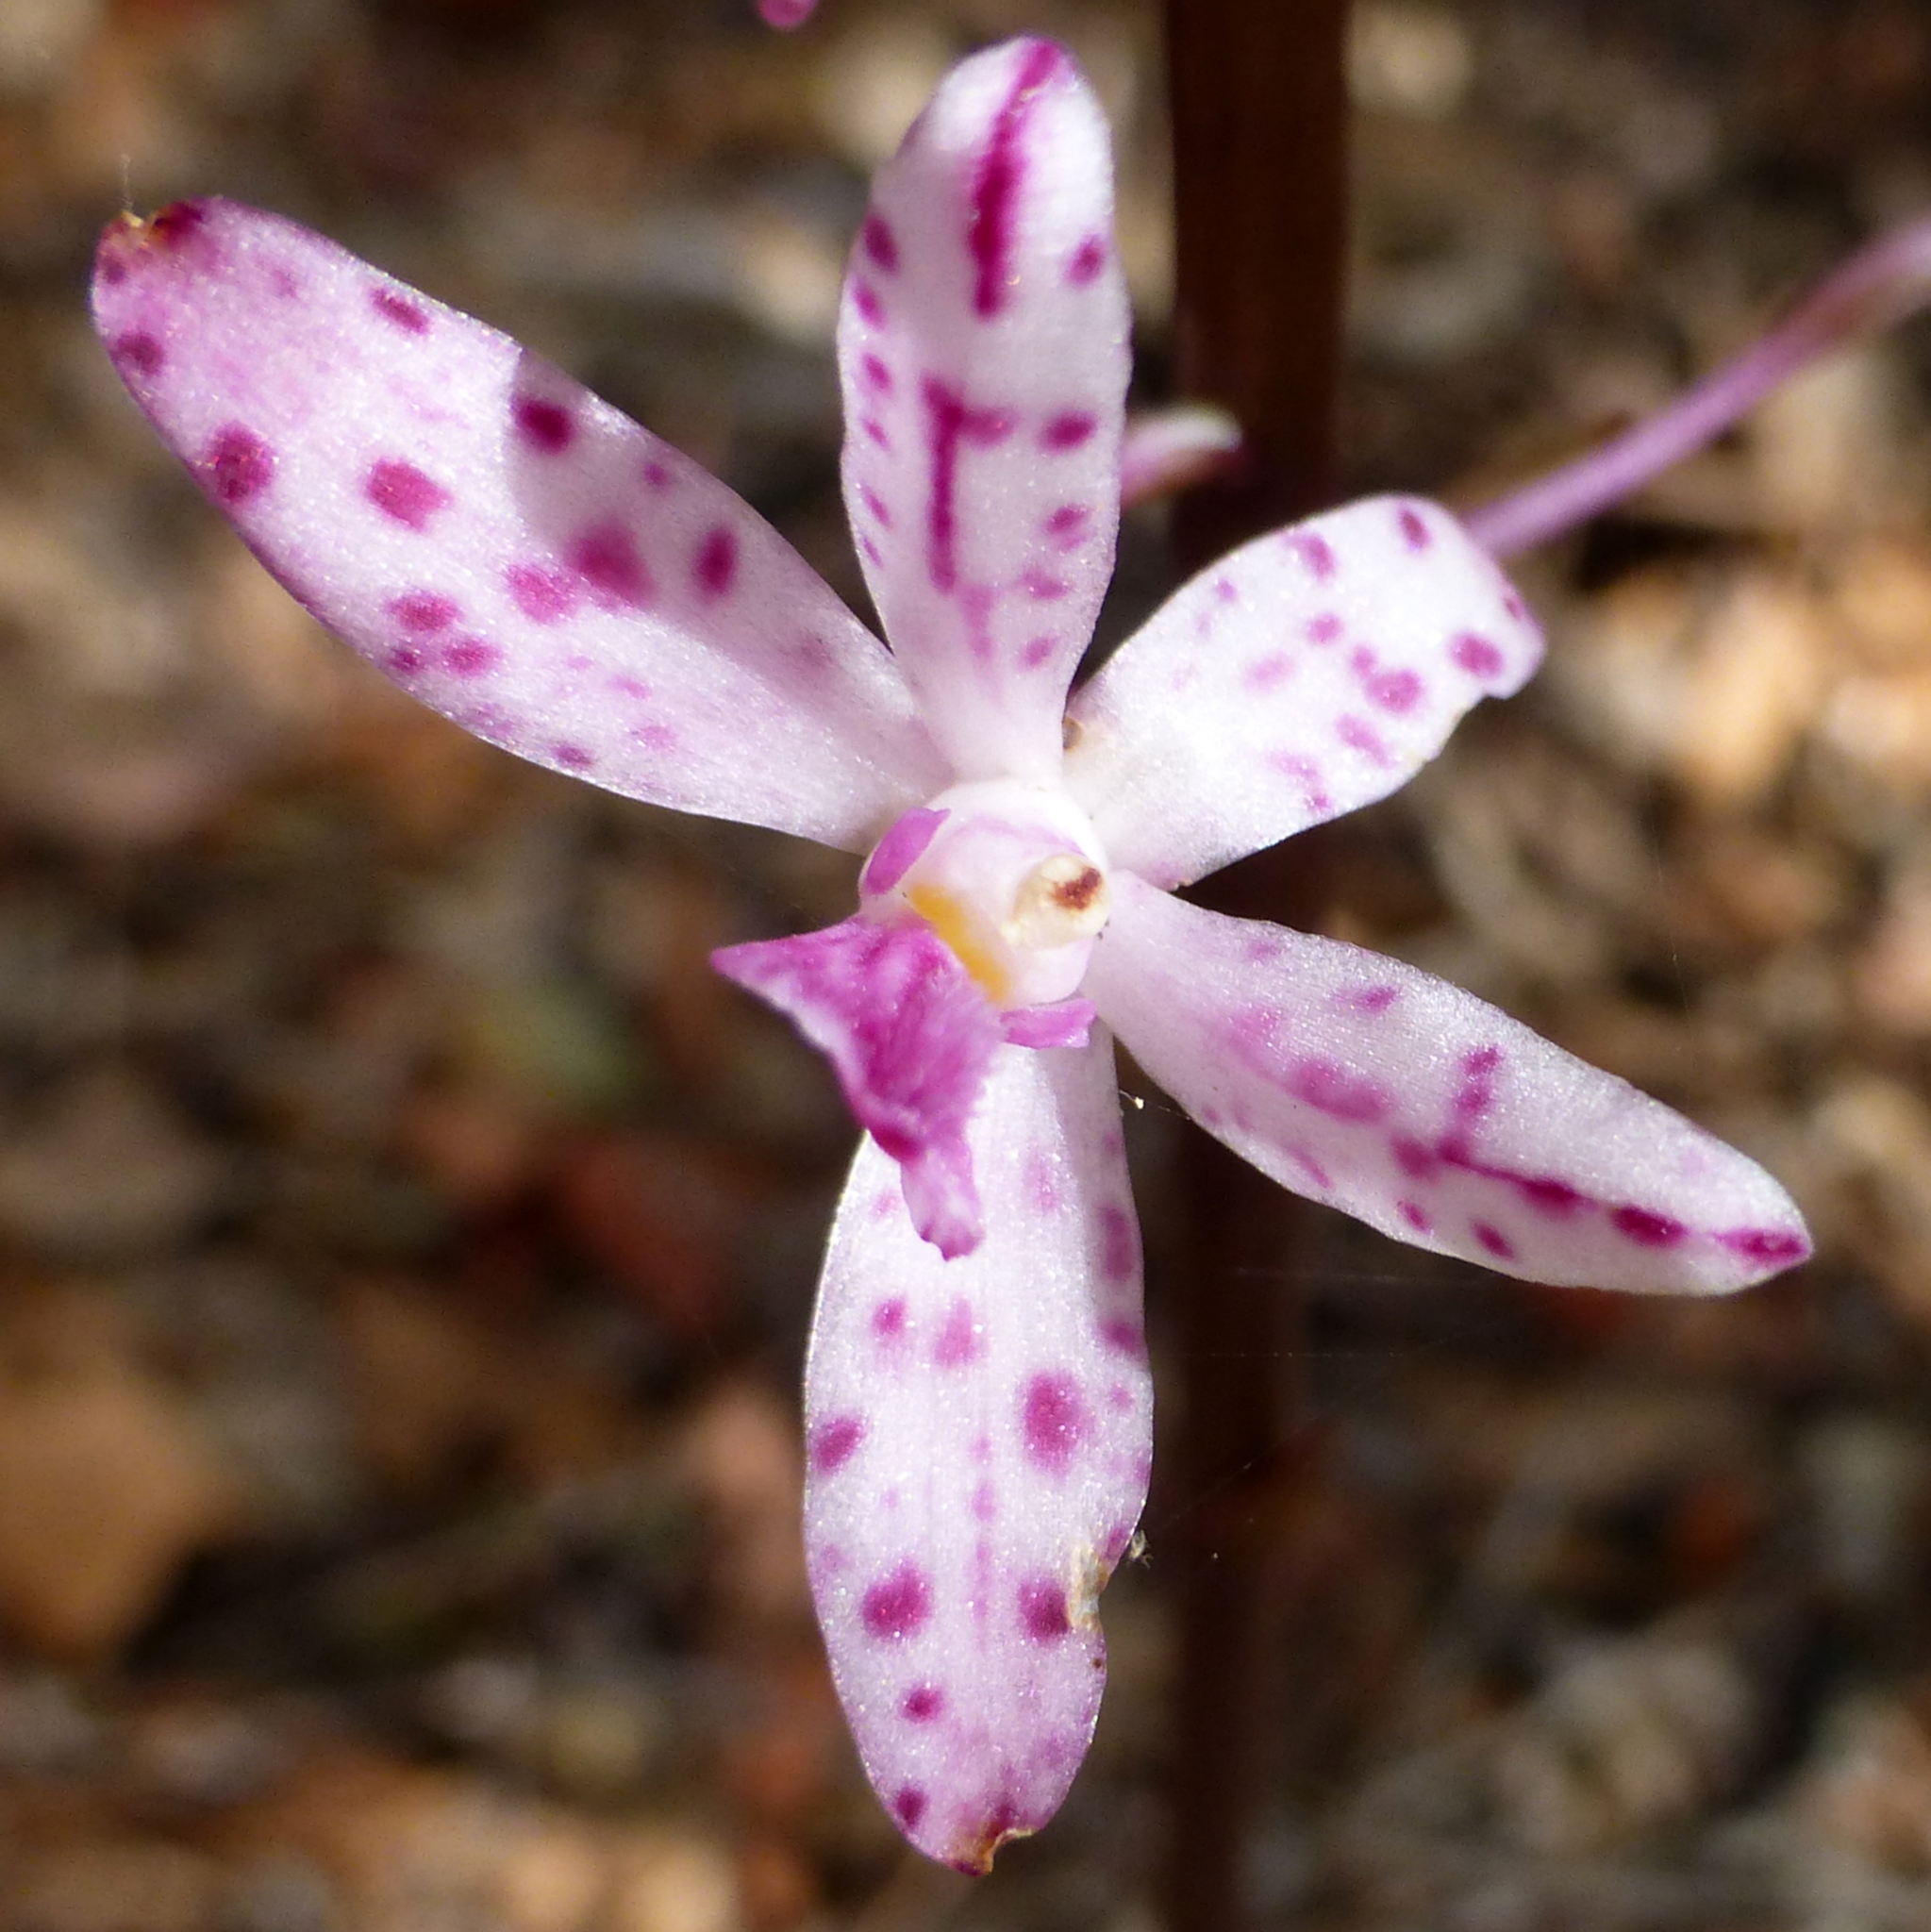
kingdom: Plantae
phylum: Tracheophyta
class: Liliopsida
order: Asparagales
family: Orchidaceae
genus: Dipodium
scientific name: Dipodium squamatum
